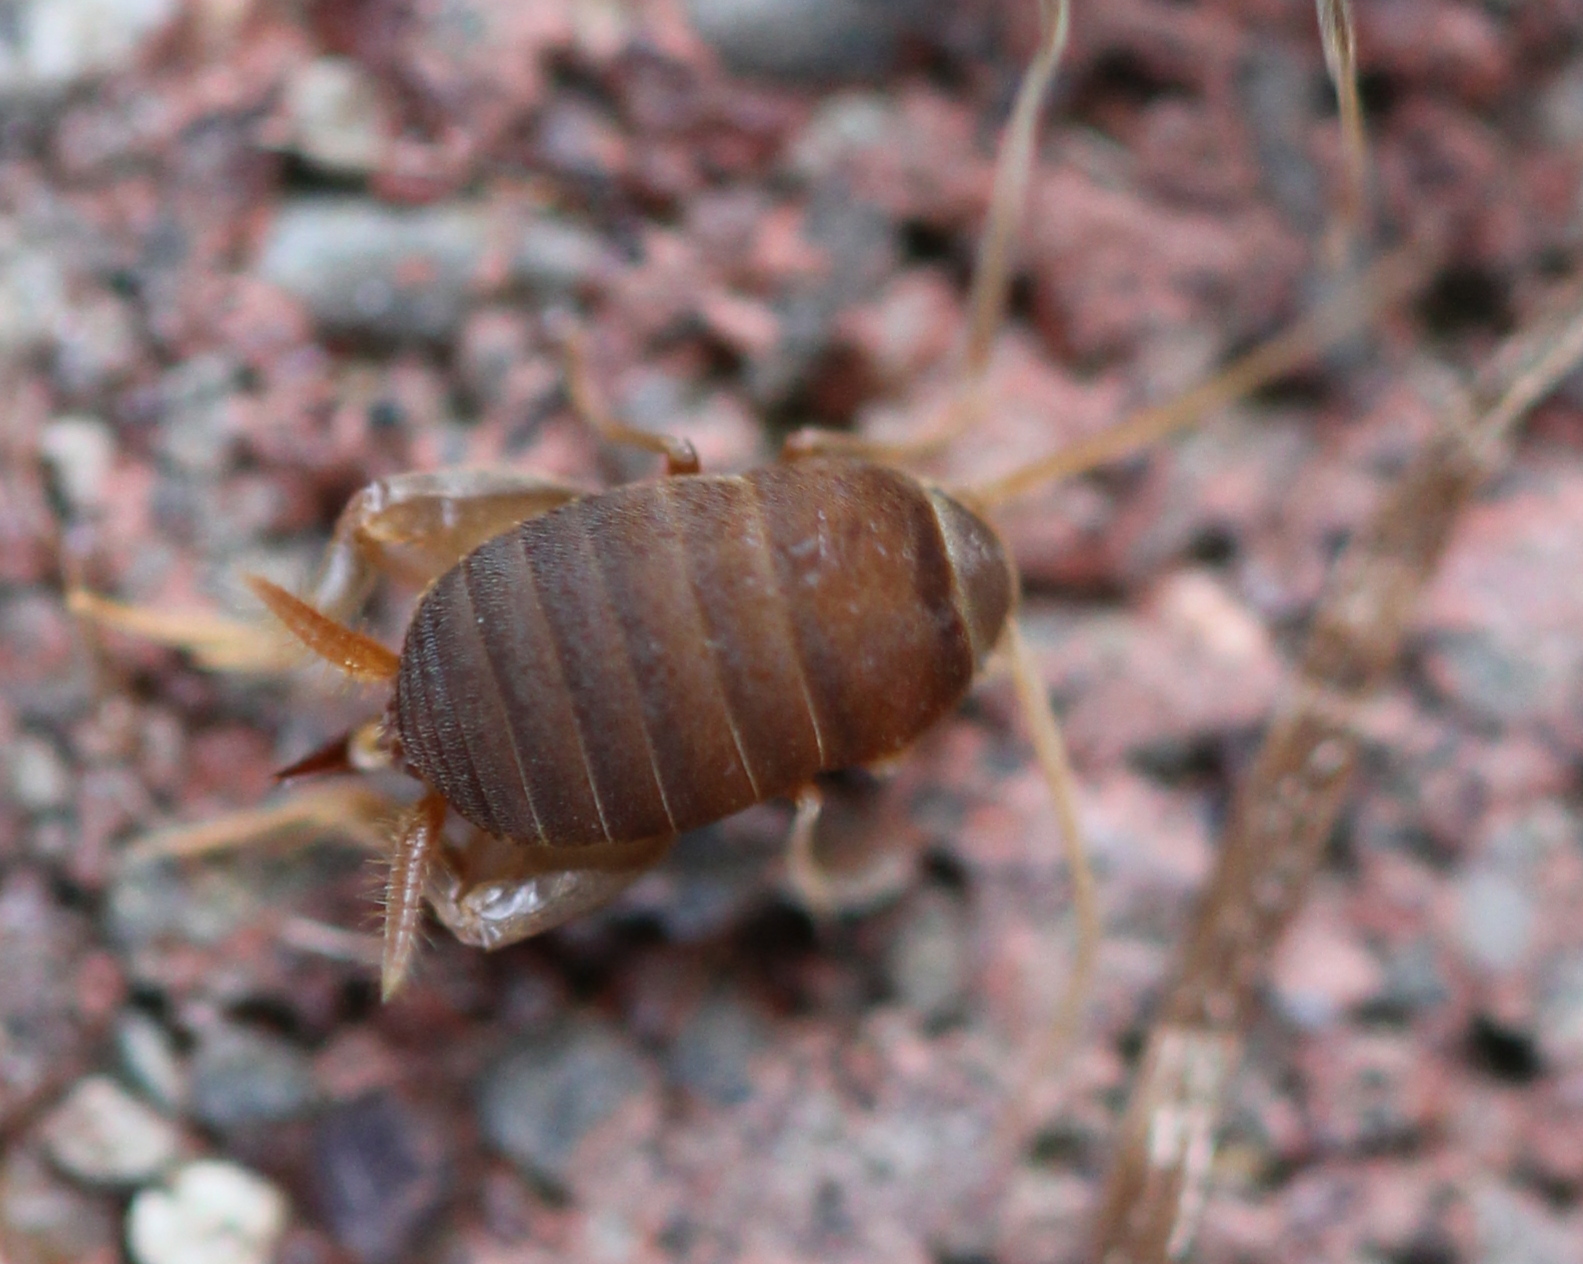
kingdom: Animalia
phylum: Arthropoda
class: Insecta
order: Orthoptera
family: Myrmecophilidae
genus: Myrmecophilus
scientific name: Myrmecophilus pergandei
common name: Eastern ant cricket
